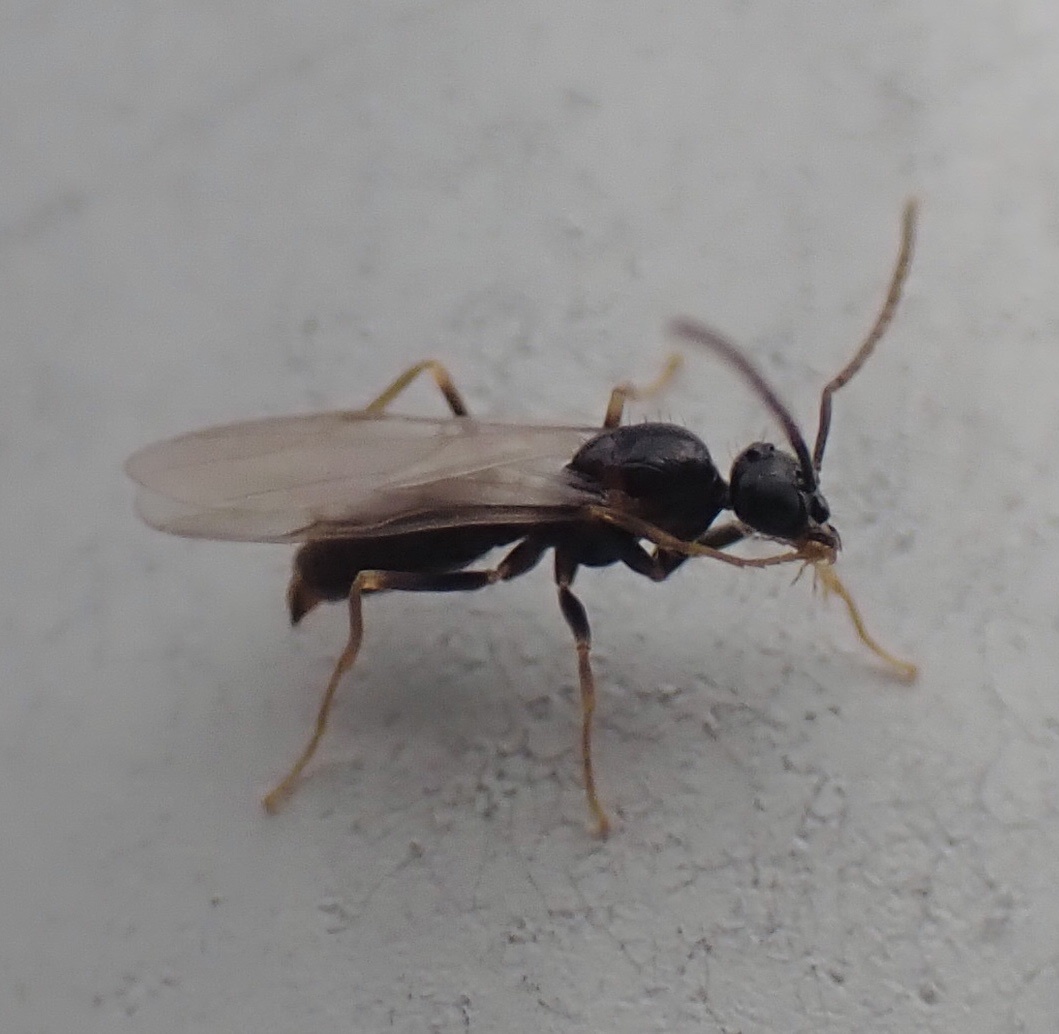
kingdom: Animalia
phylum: Arthropoda
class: Insecta
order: Hymenoptera
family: Formicidae
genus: Prenolepis
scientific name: Prenolepis imparis
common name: Small honey ant
